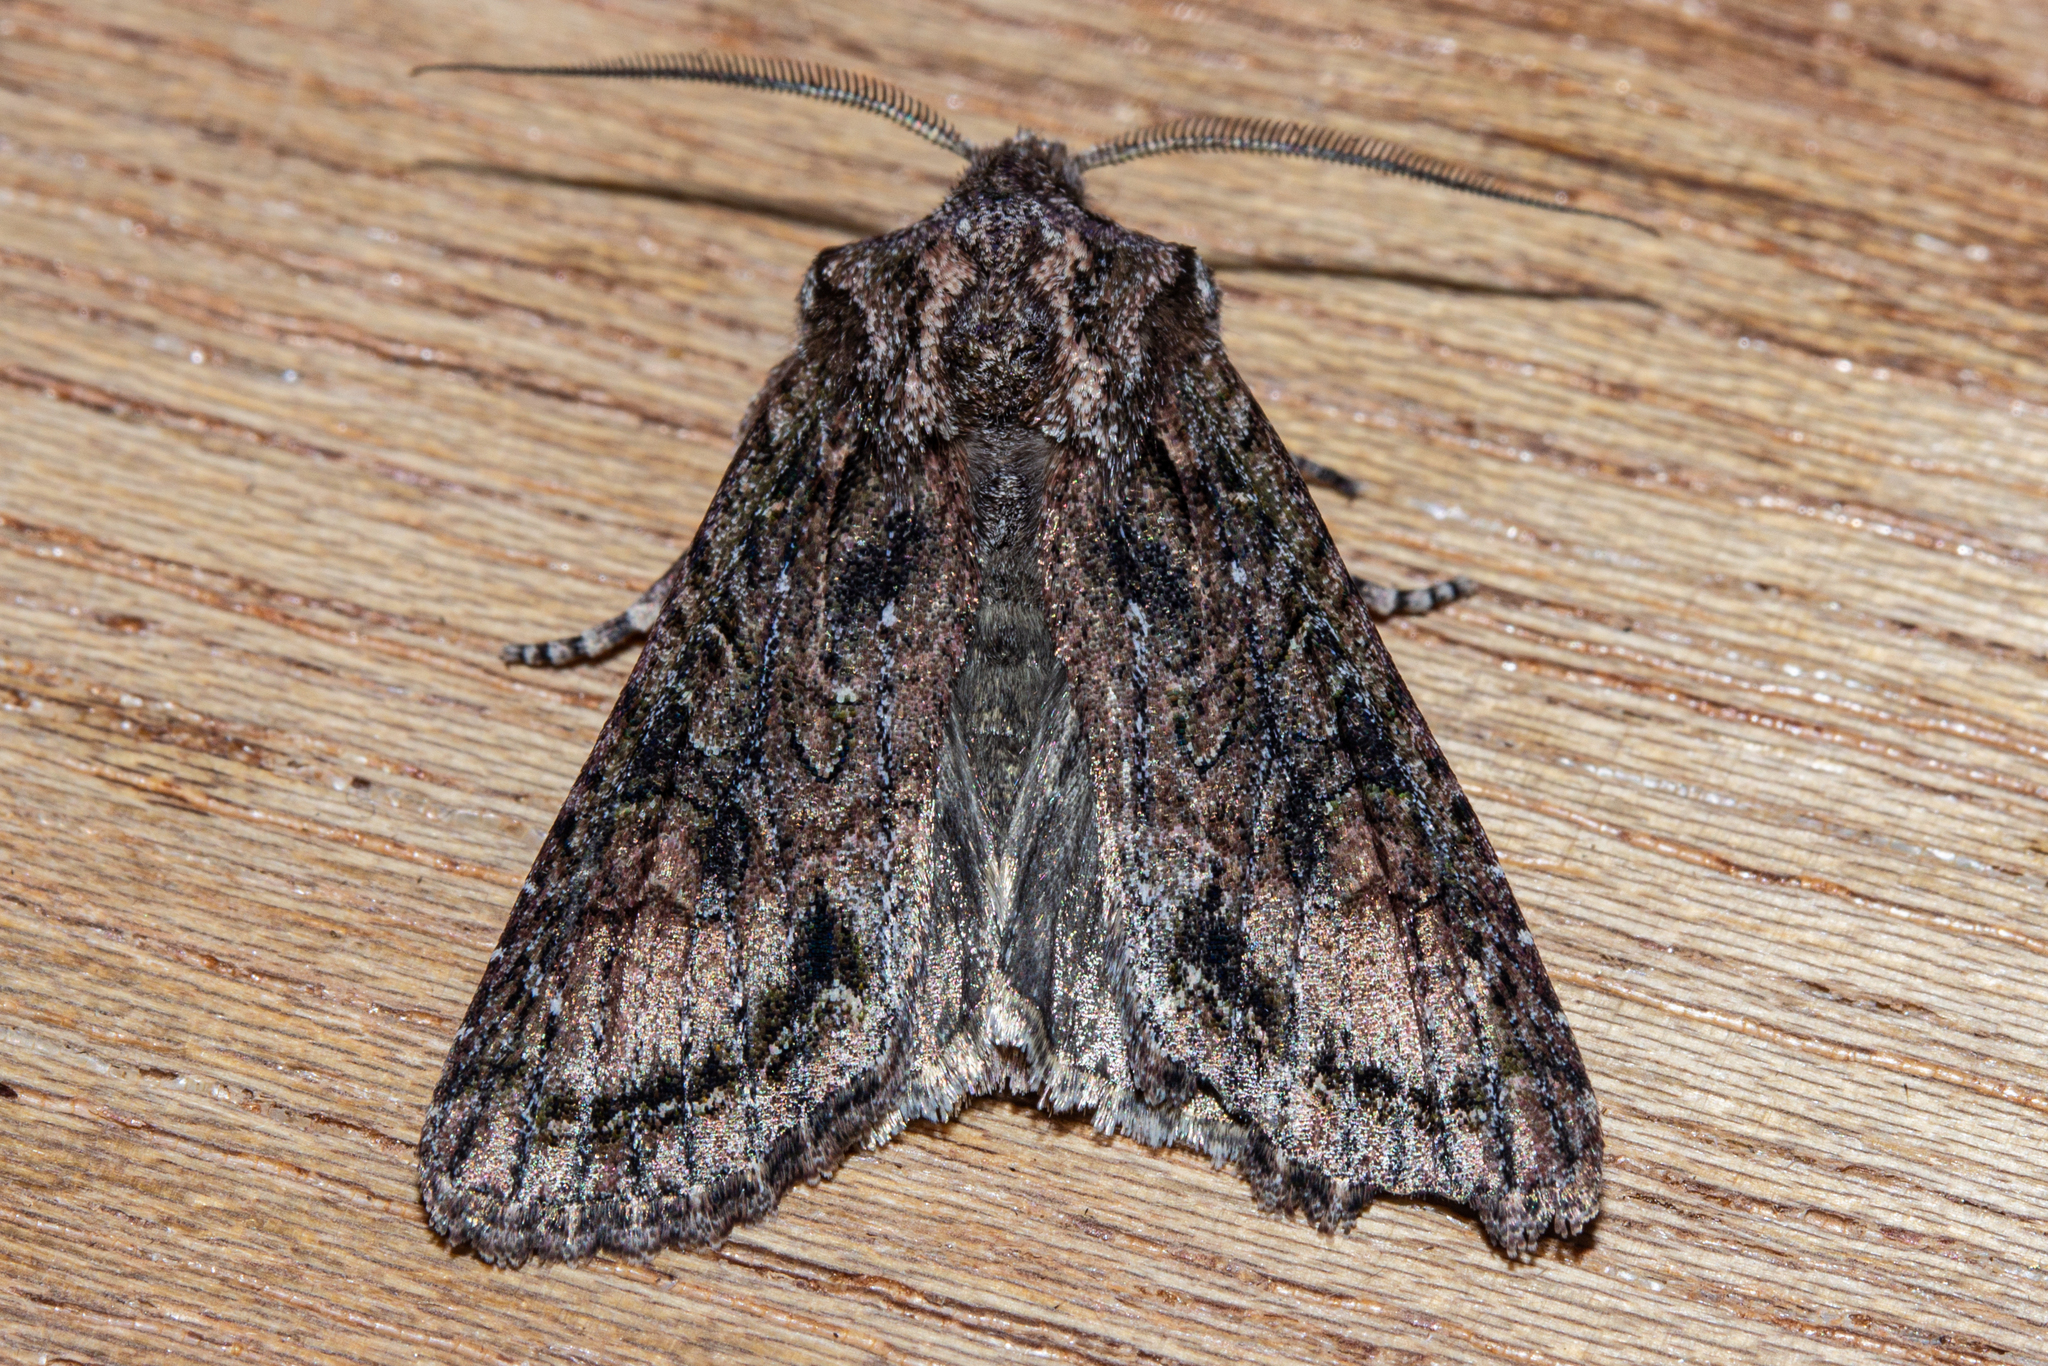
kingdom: Animalia
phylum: Arthropoda
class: Insecta
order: Lepidoptera
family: Noctuidae
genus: Ichneutica
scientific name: Ichneutica mutans
